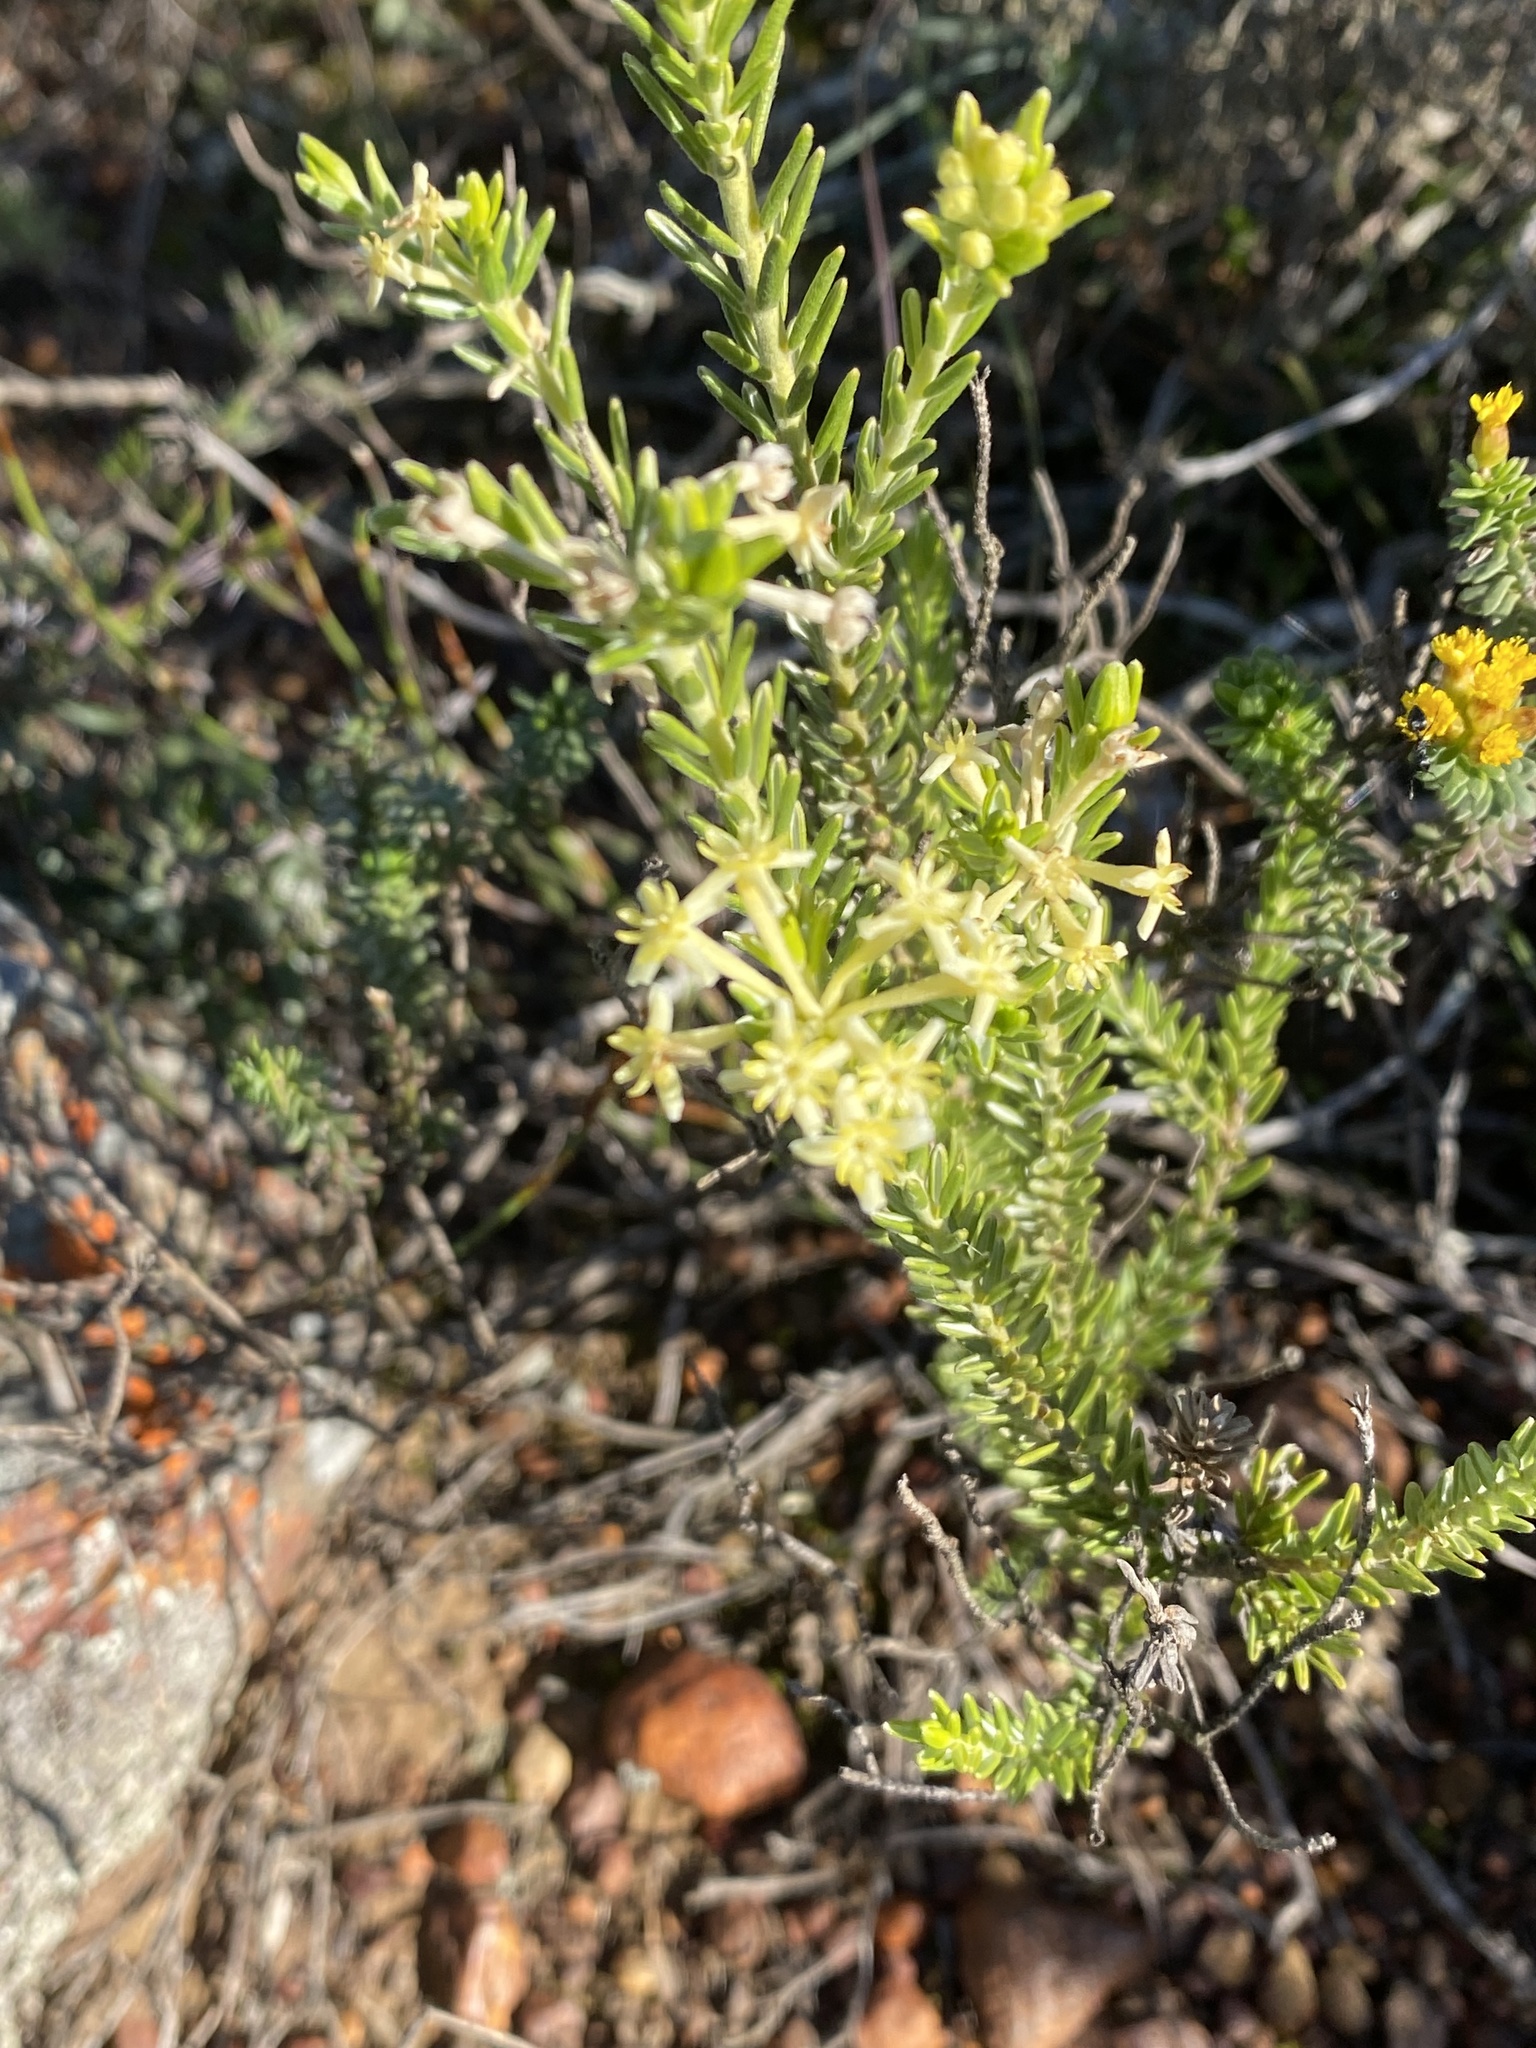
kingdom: Plantae
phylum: Tracheophyta
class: Magnoliopsida
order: Malvales
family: Thymelaeaceae
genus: Gnidia
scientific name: Gnidia caniflora
